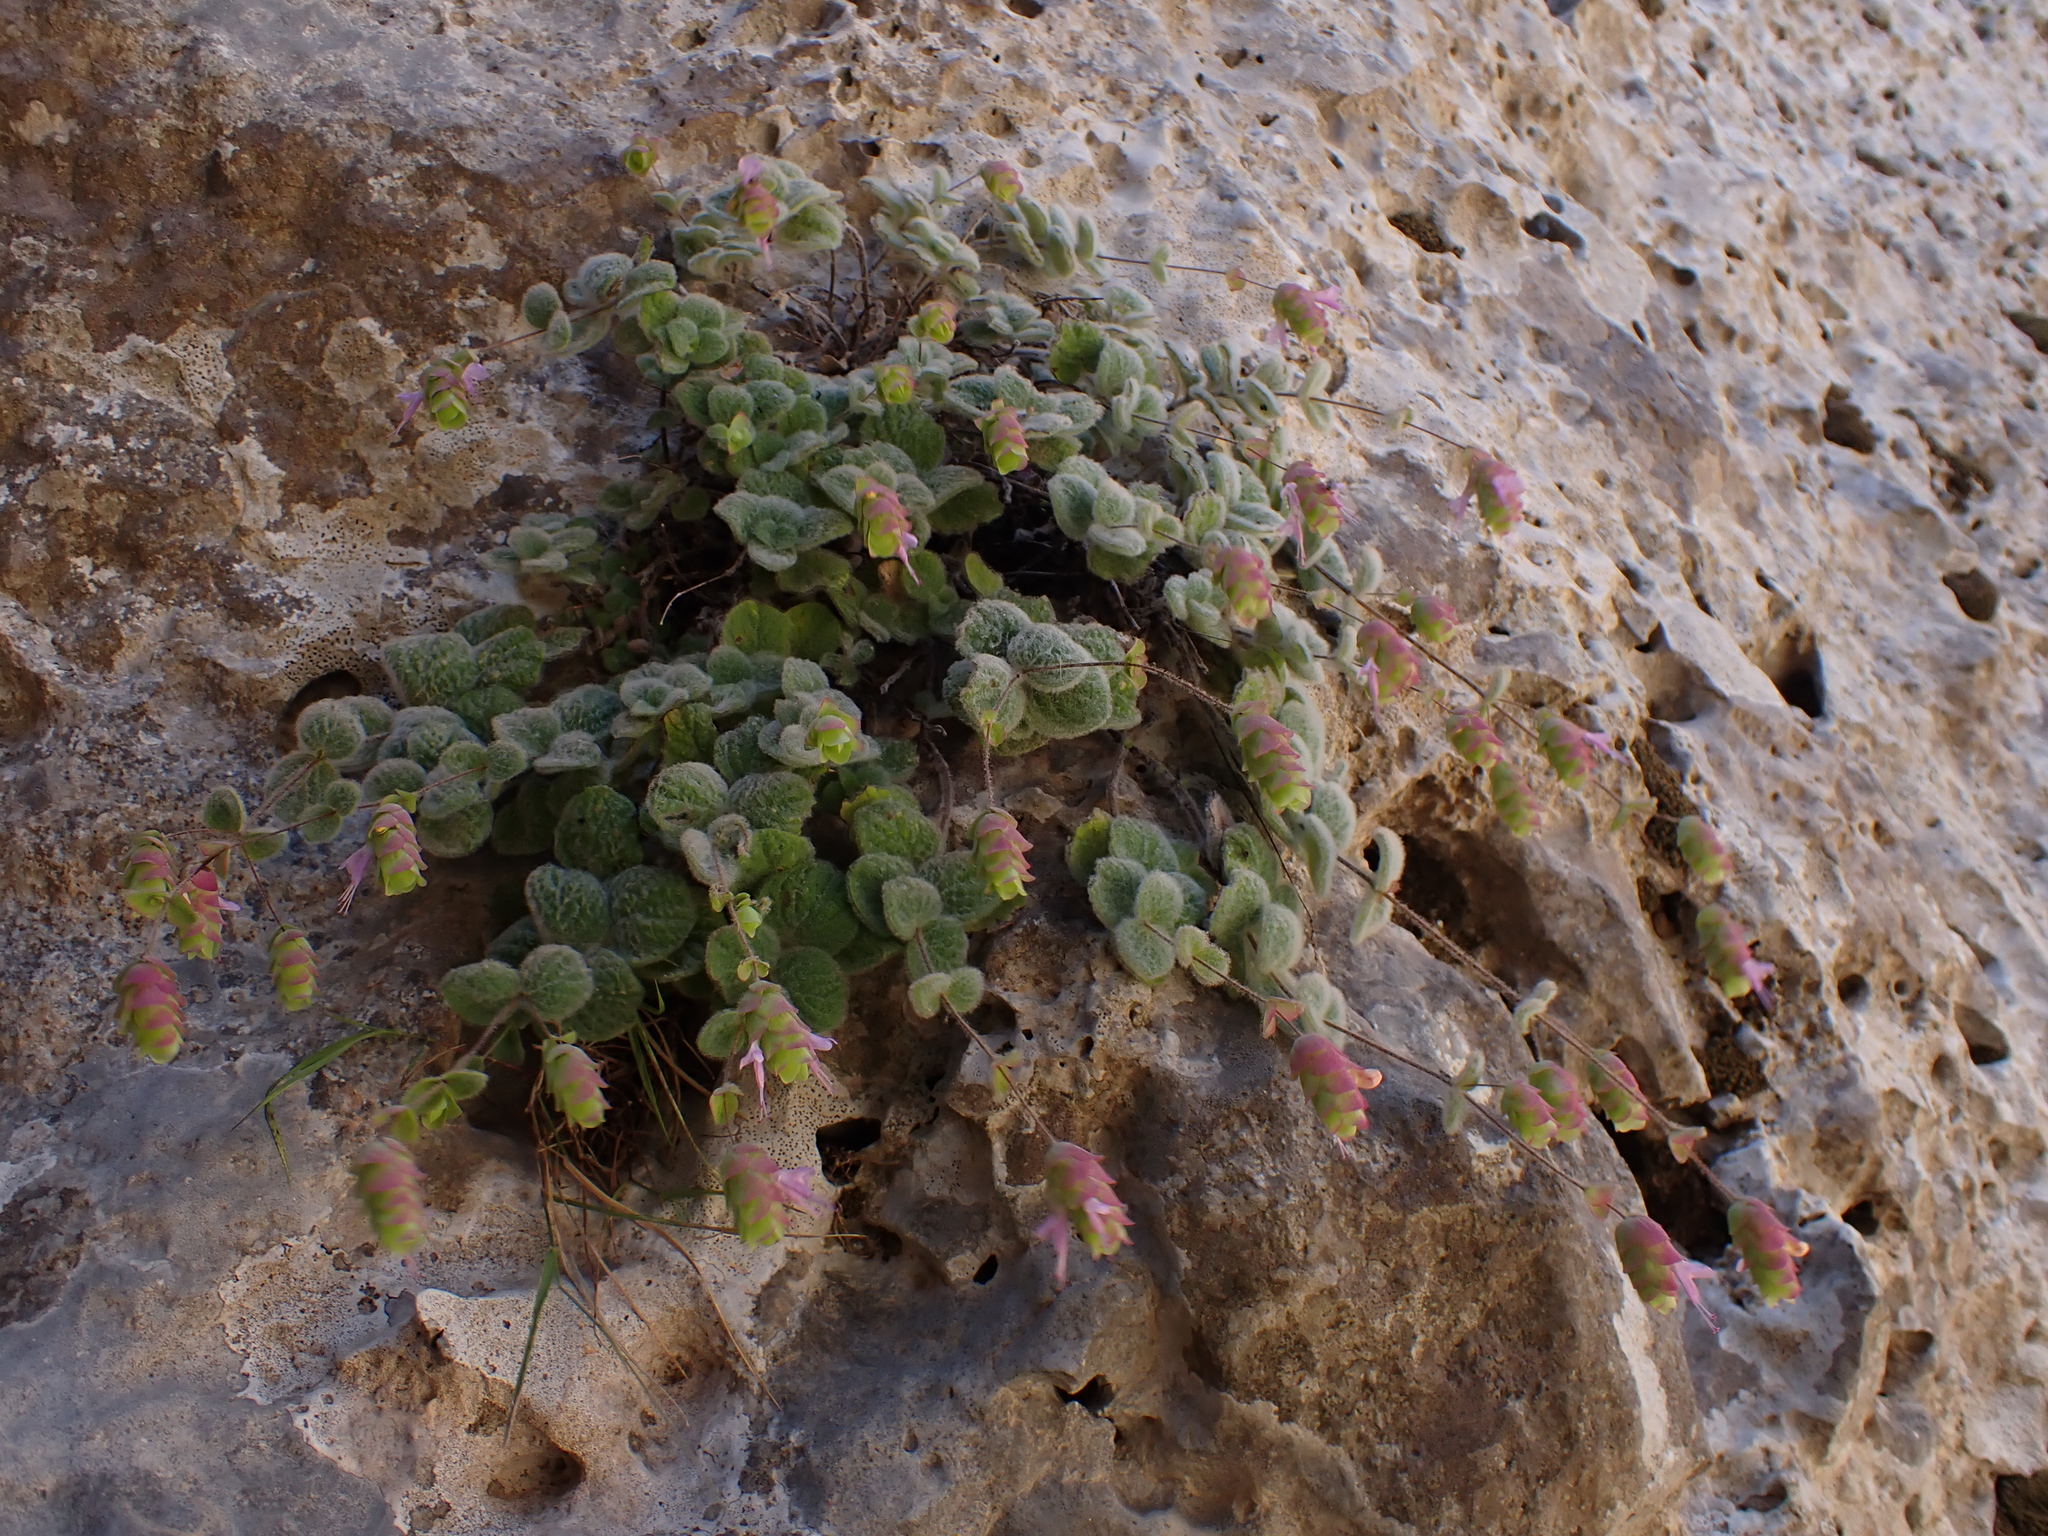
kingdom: Plantae
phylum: Tracheophyta
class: Magnoliopsida
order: Lamiales
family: Lamiaceae
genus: Origanum
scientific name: Origanum dictamnus
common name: Cretan dittany
